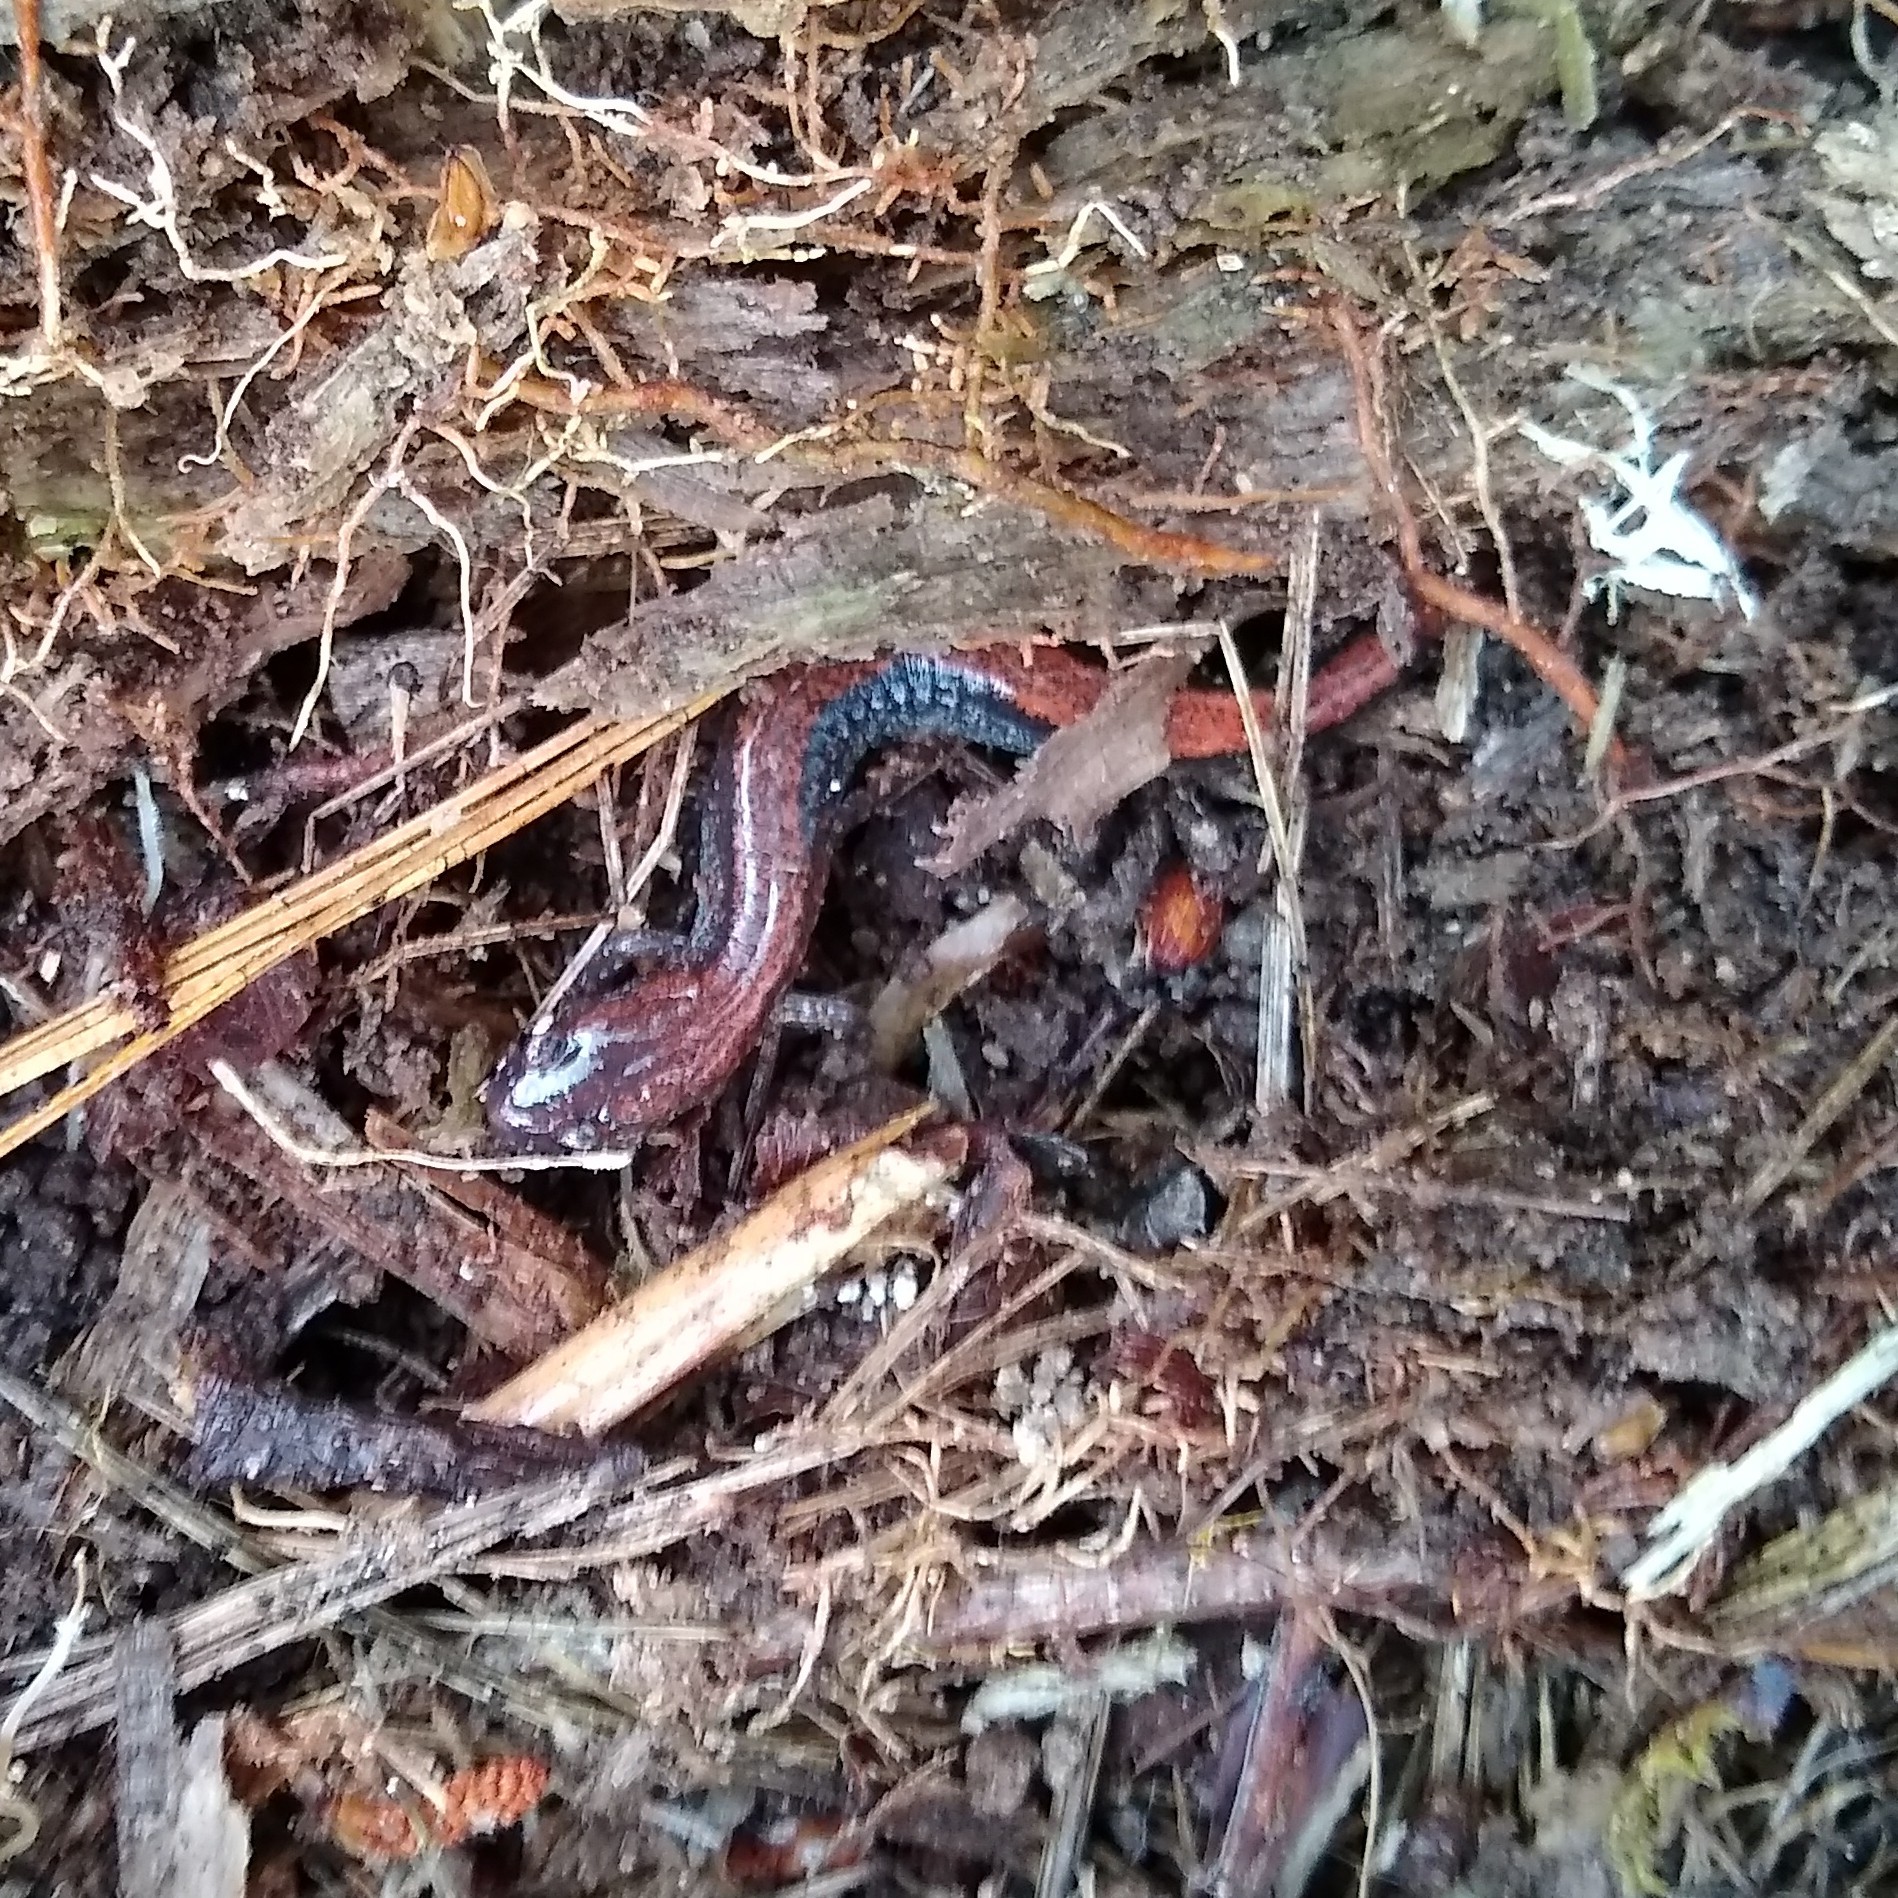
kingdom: Animalia
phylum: Chordata
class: Amphibia
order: Caudata
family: Plethodontidae
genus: Plethodon
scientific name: Plethodon cinereus
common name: Redback salamander
